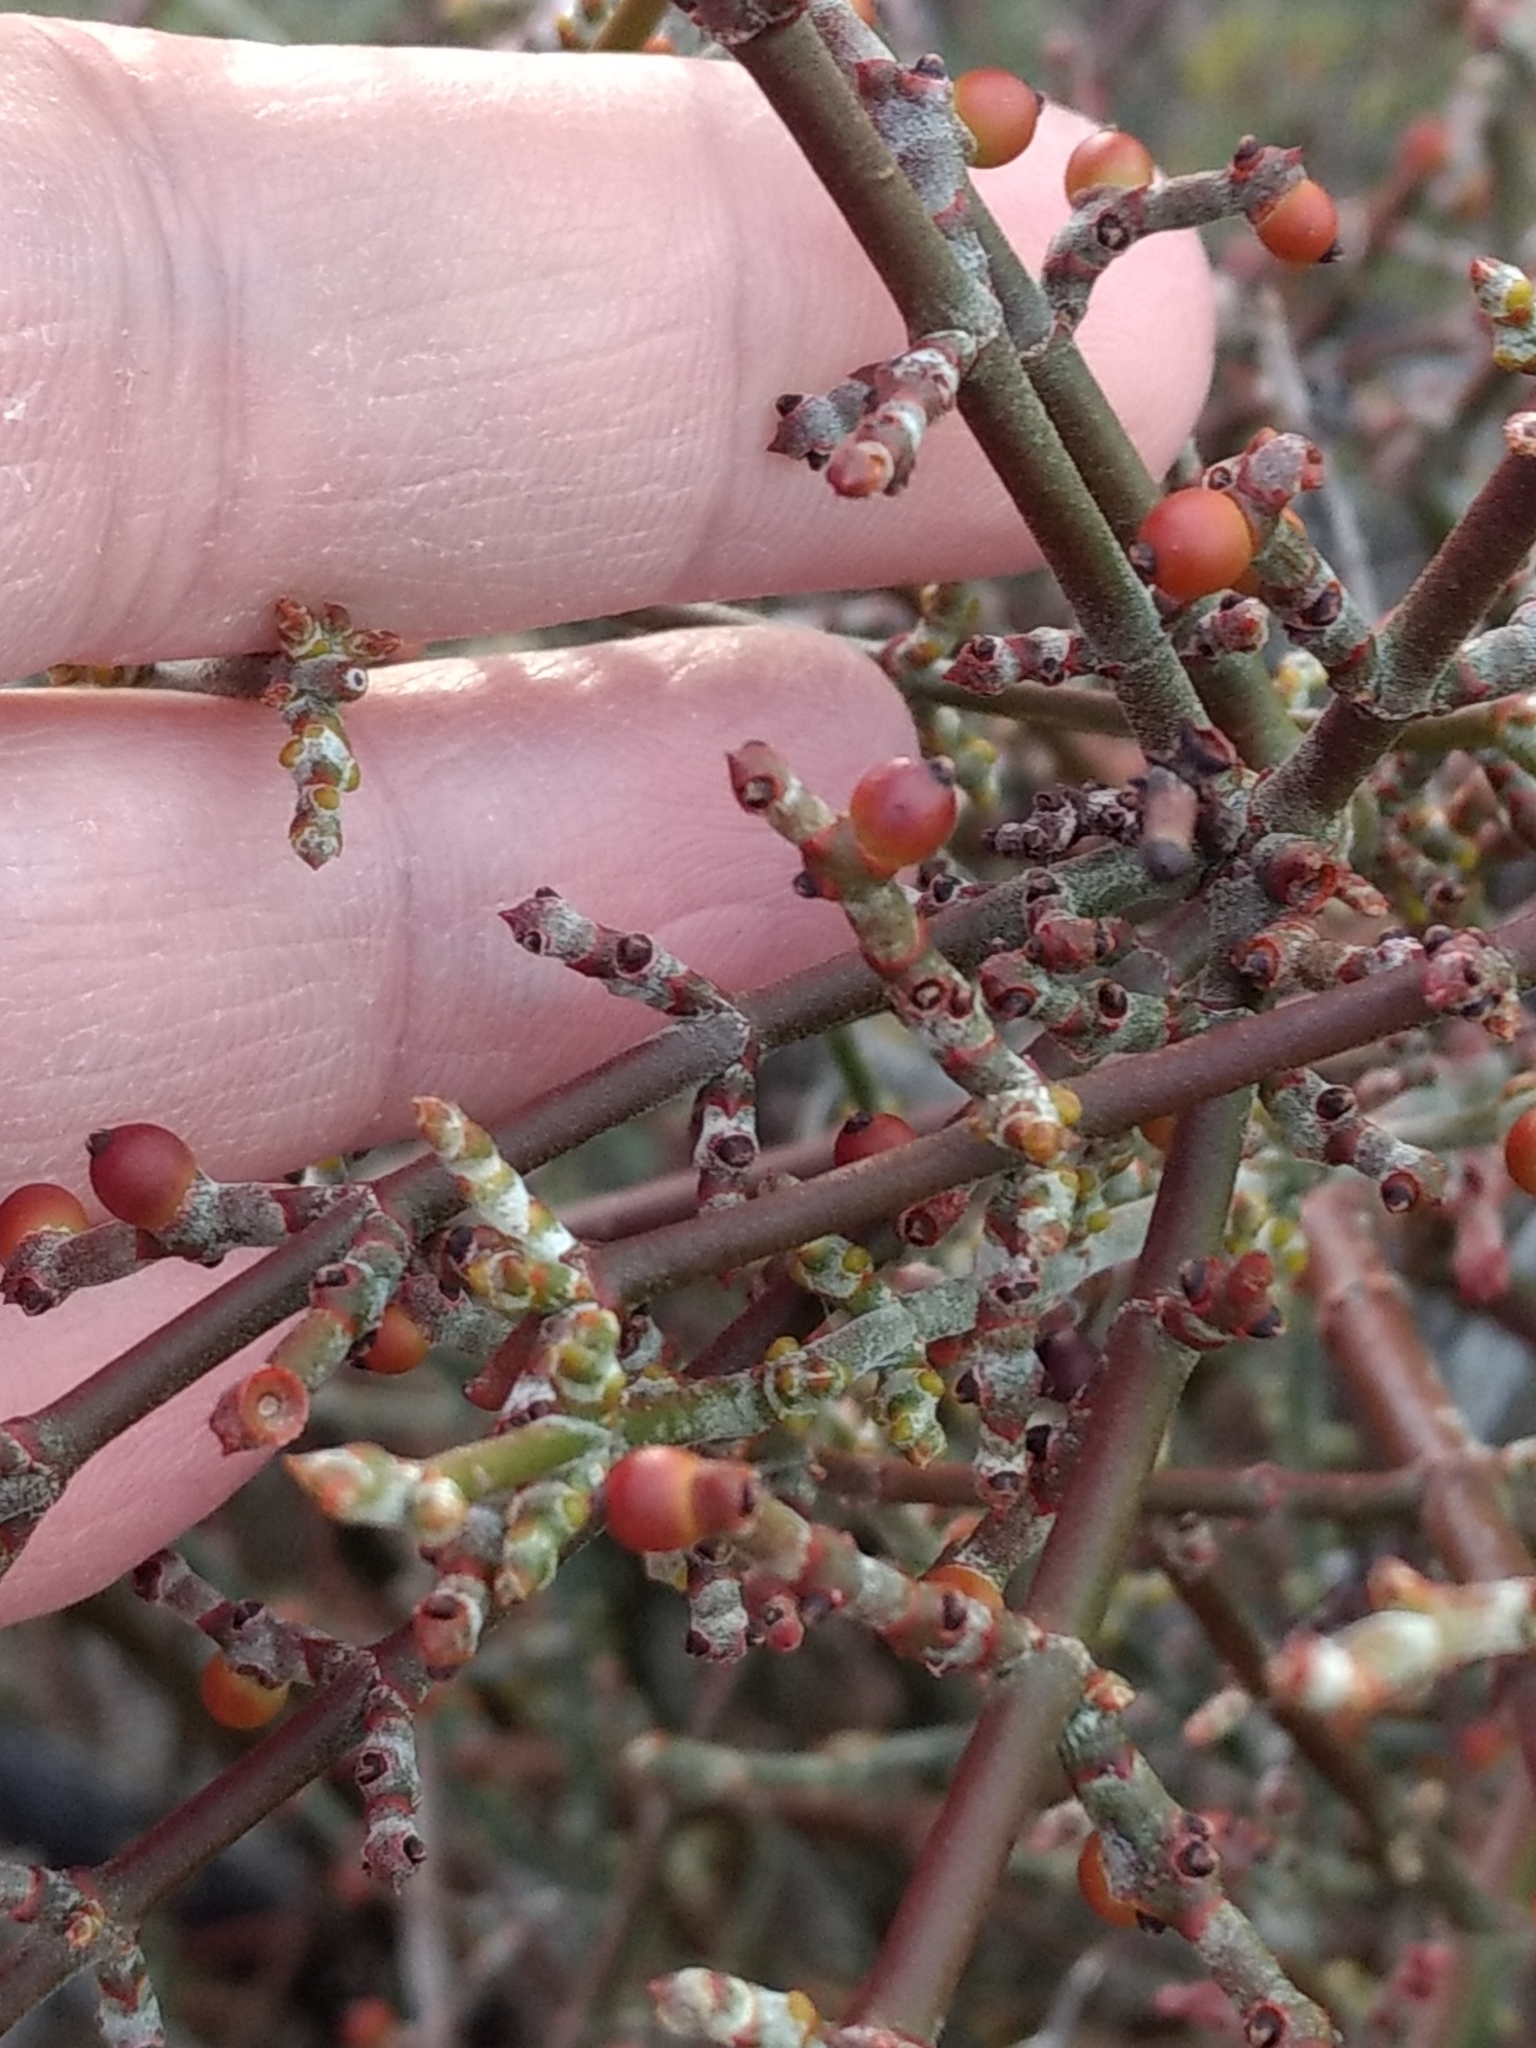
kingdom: Plantae
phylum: Tracheophyta
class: Magnoliopsida
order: Santalales
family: Viscaceae
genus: Phoradendron
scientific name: Phoradendron californicum
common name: Acacia mistletoe
